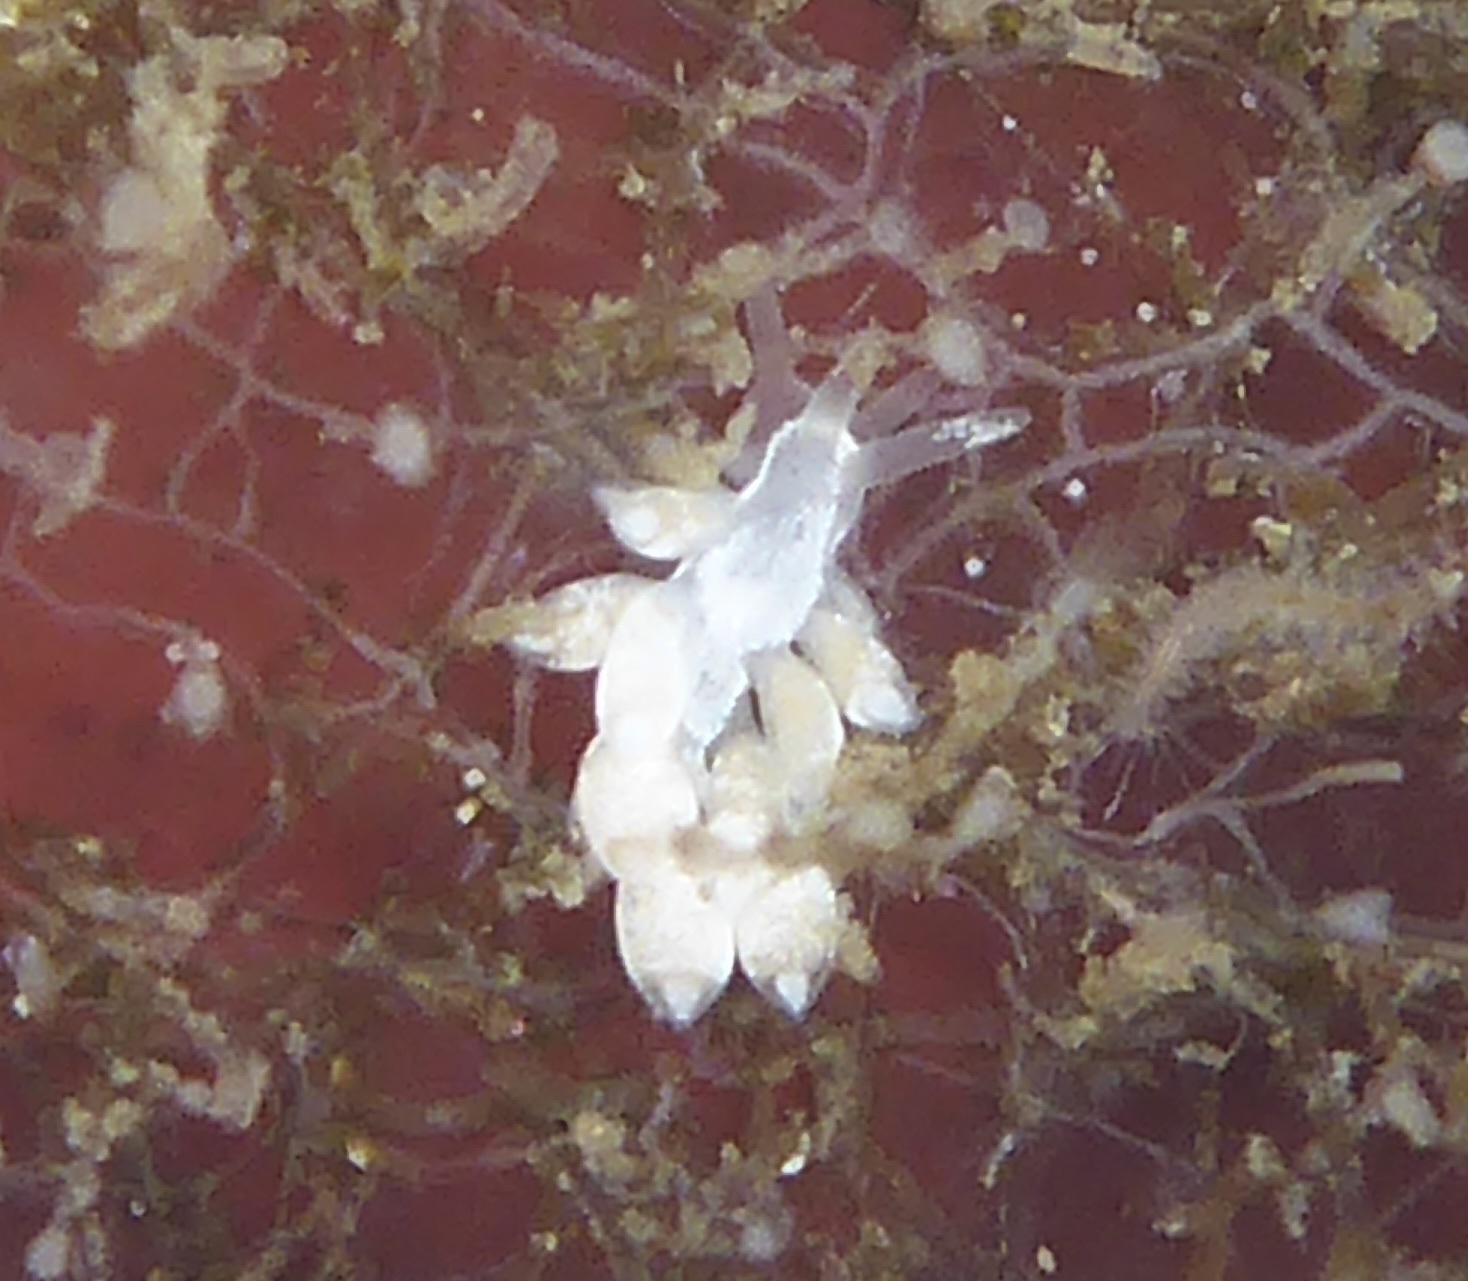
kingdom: Animalia
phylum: Mollusca
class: Gastropoda
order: Nudibranchia
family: Trinchesiidae
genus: Trinchesia
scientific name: Trinchesia albocrusta
